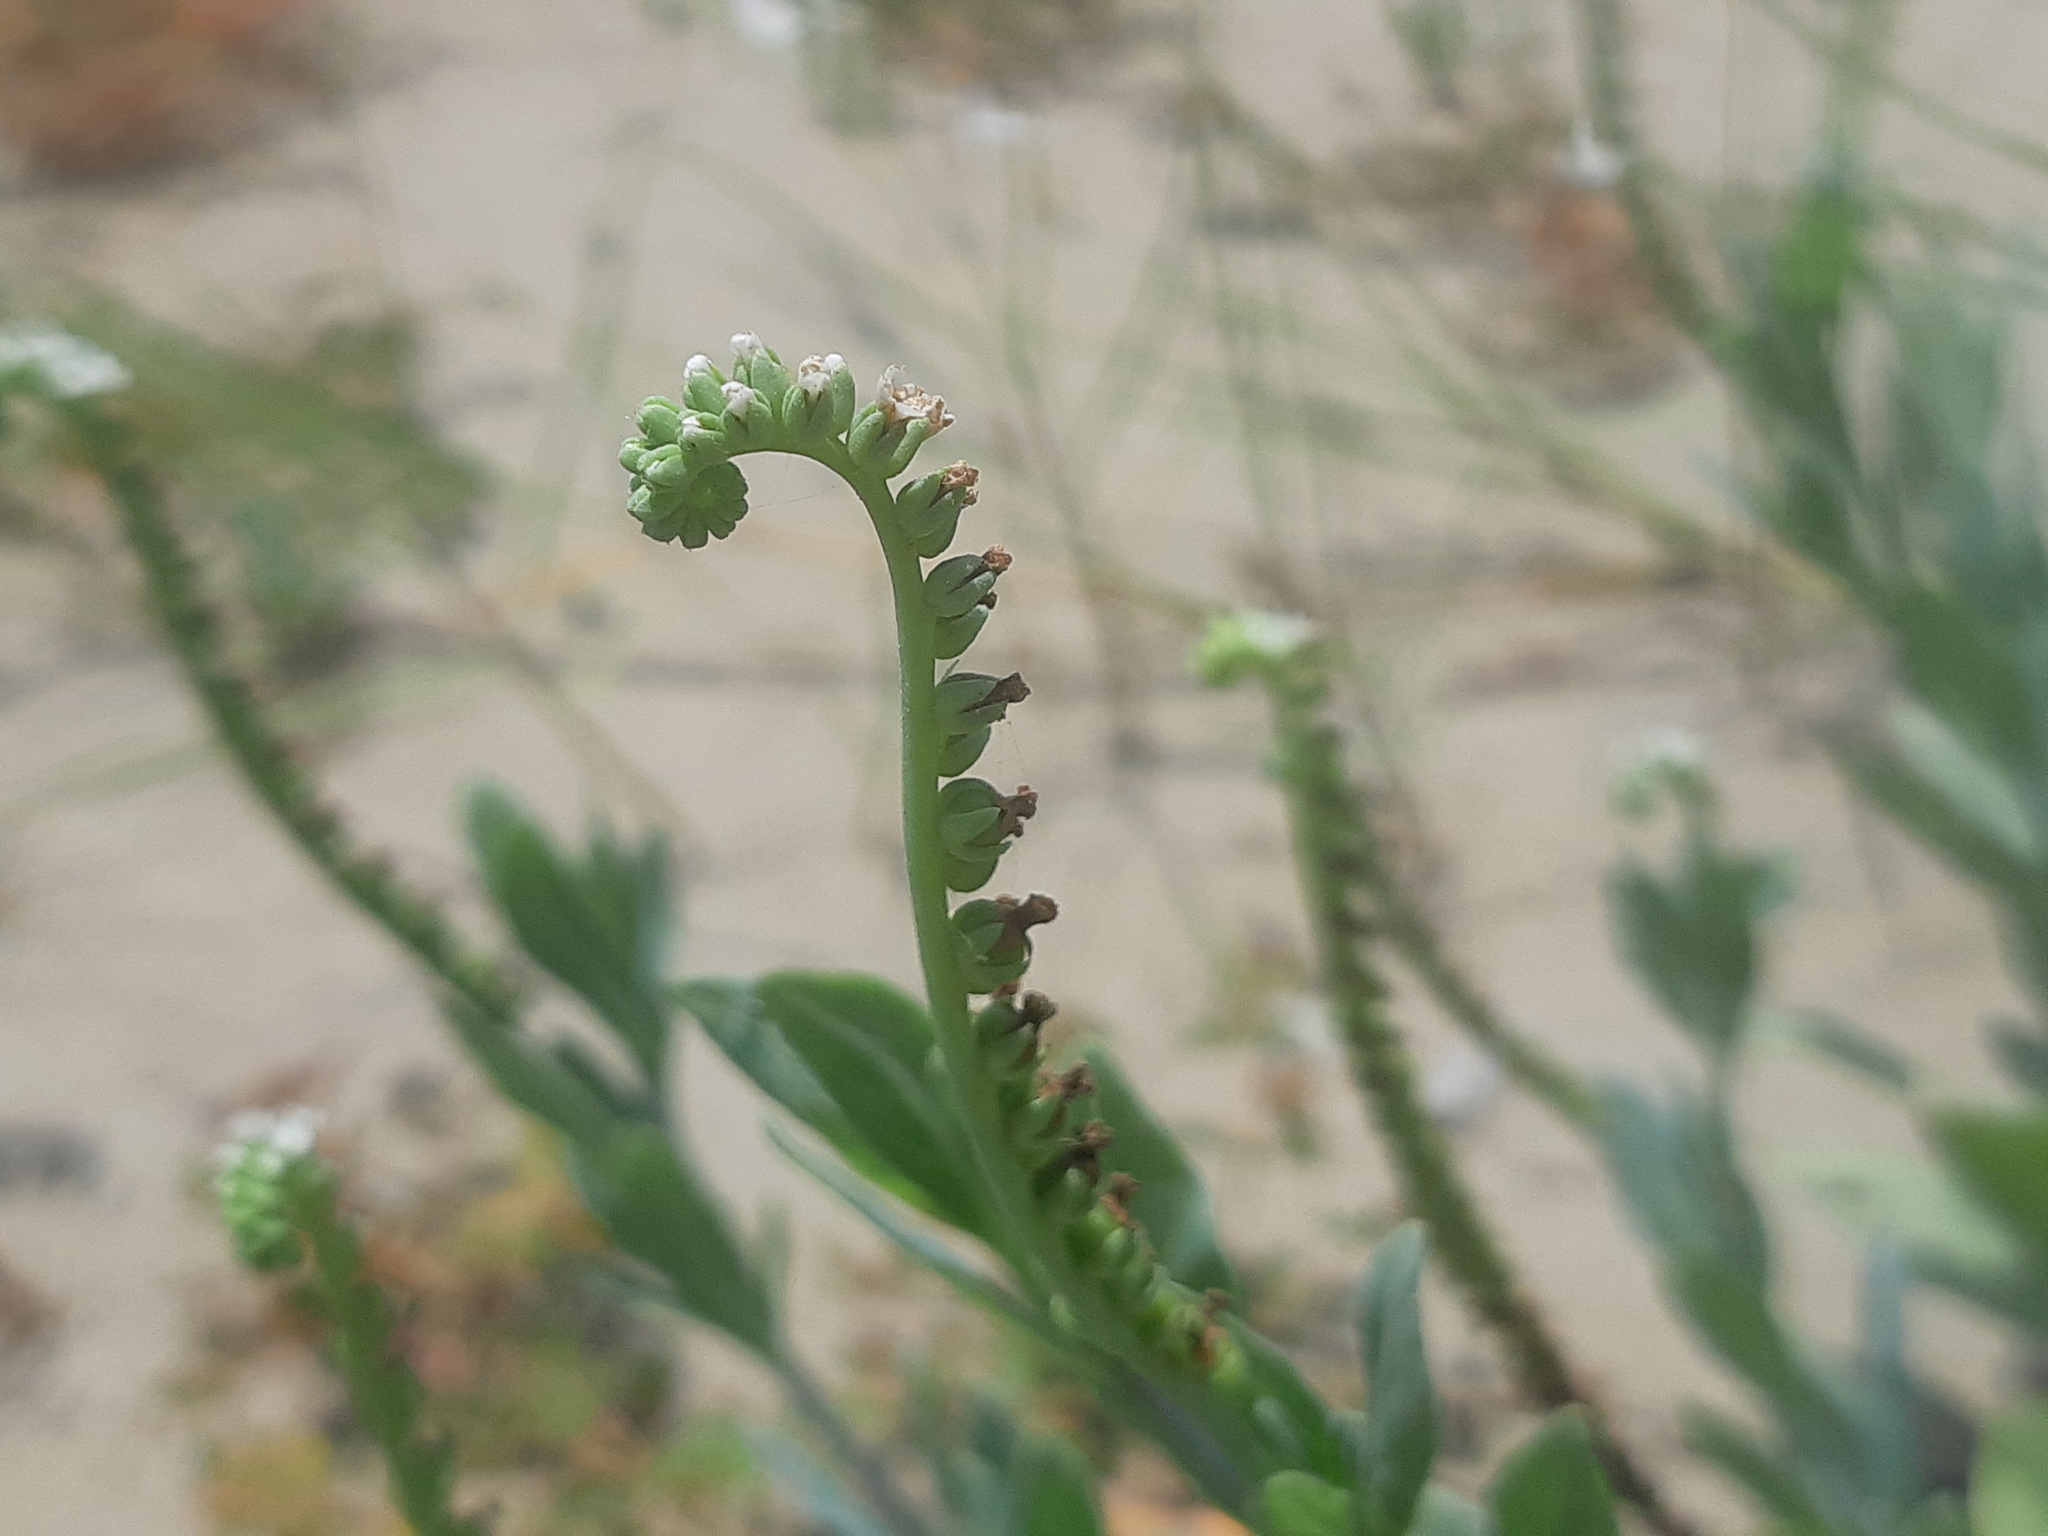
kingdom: Plantae
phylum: Tracheophyta
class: Magnoliopsida
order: Boraginales
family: Heliotropiaceae
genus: Heliotropium
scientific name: Heliotropium curassavicum
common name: Seaside heliotrope
